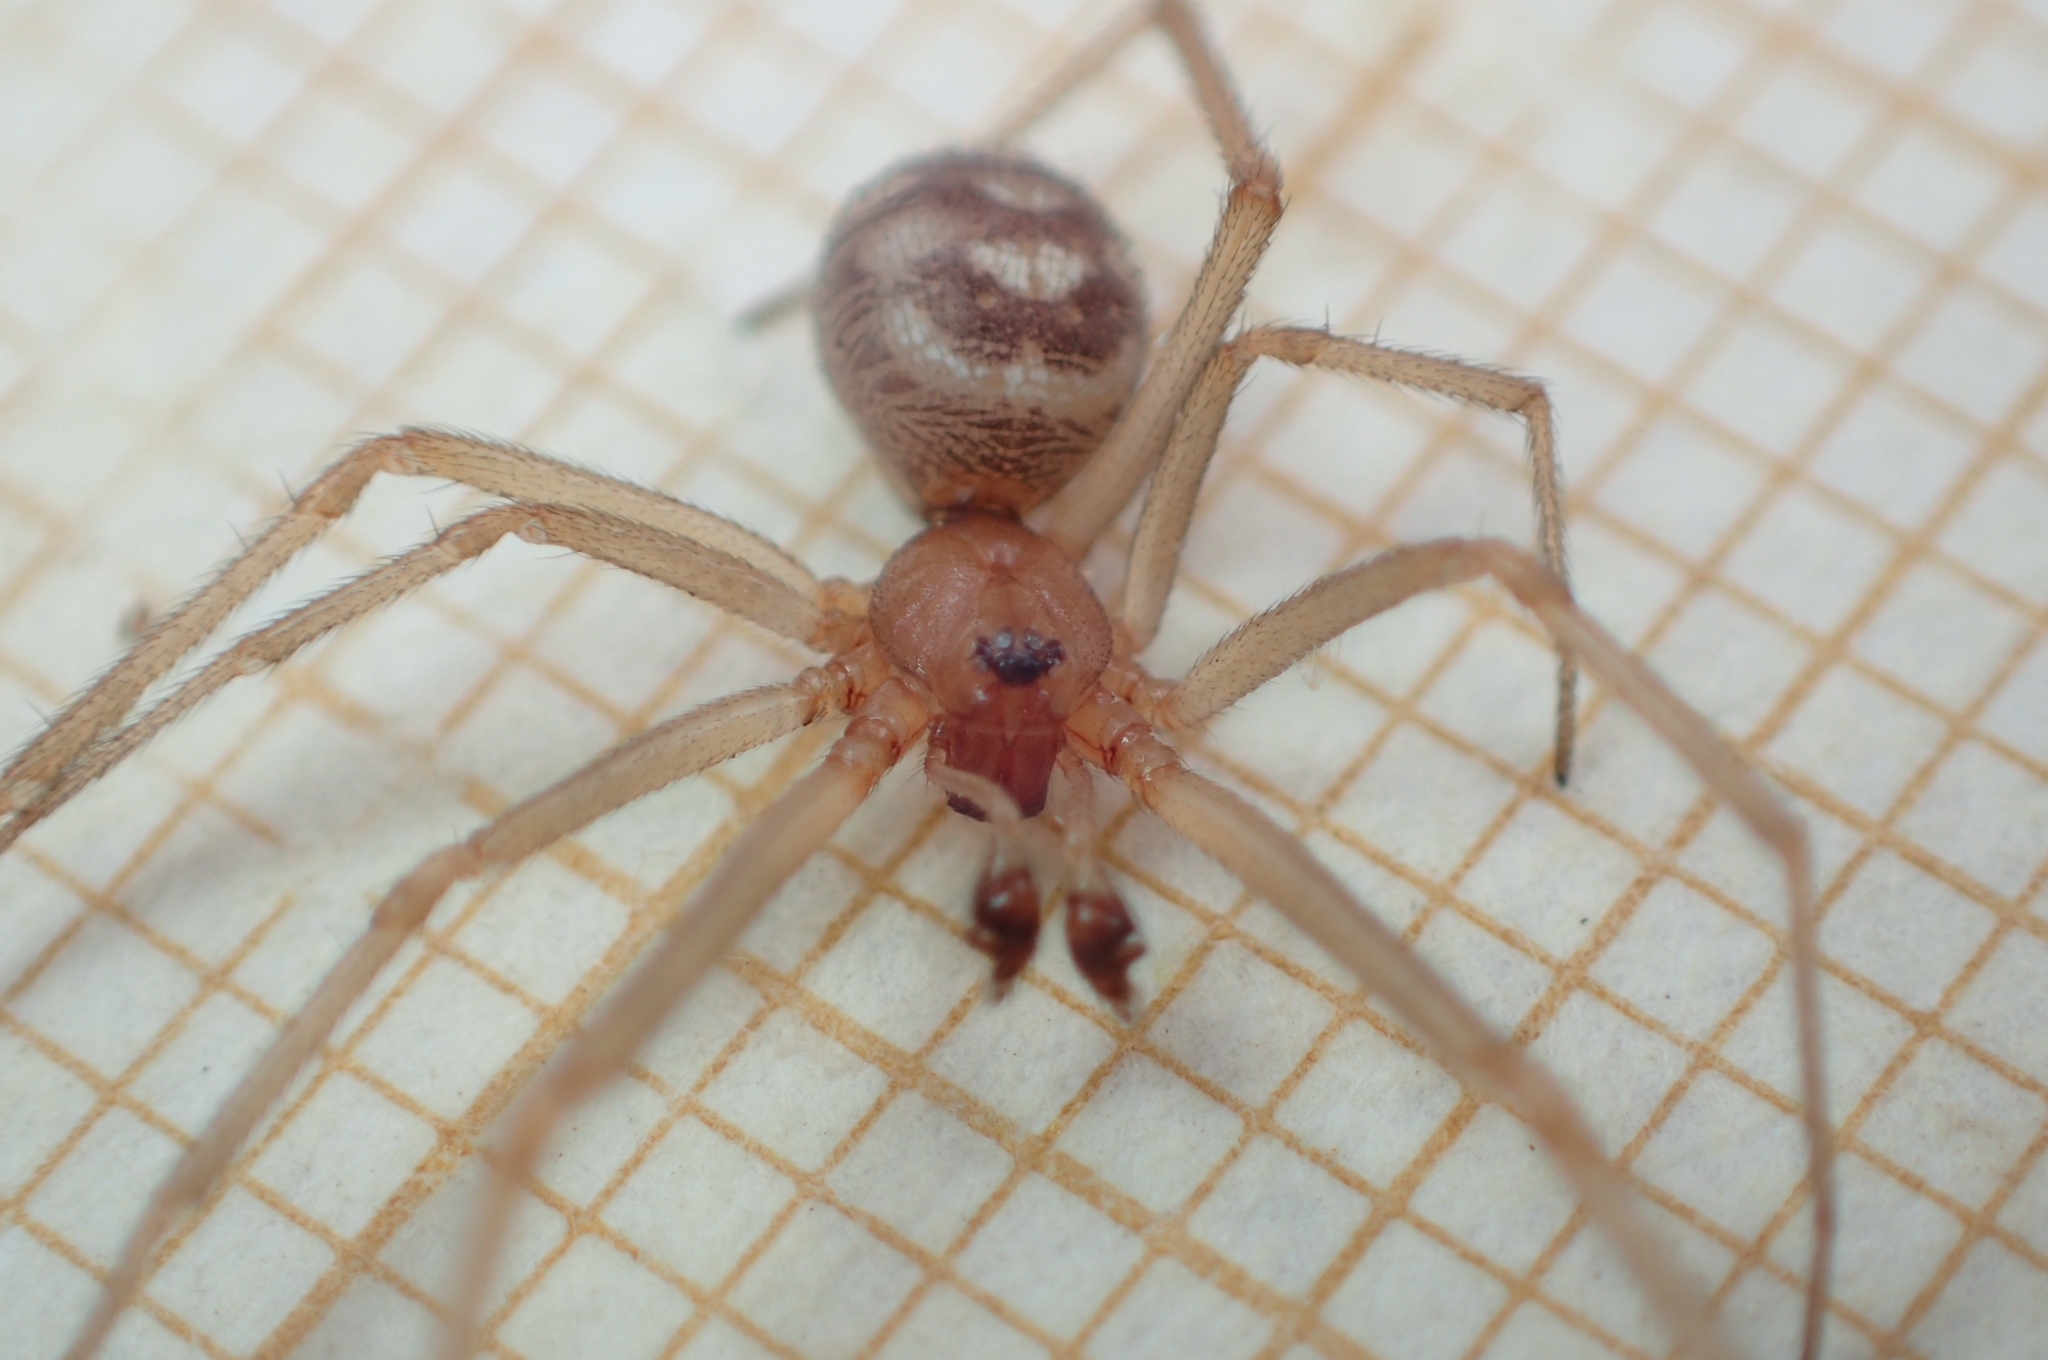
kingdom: Animalia
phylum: Arthropoda
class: Arachnida
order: Araneae
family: Theridiidae
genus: Steatoda
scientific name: Steatoda grossa
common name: False black widow
